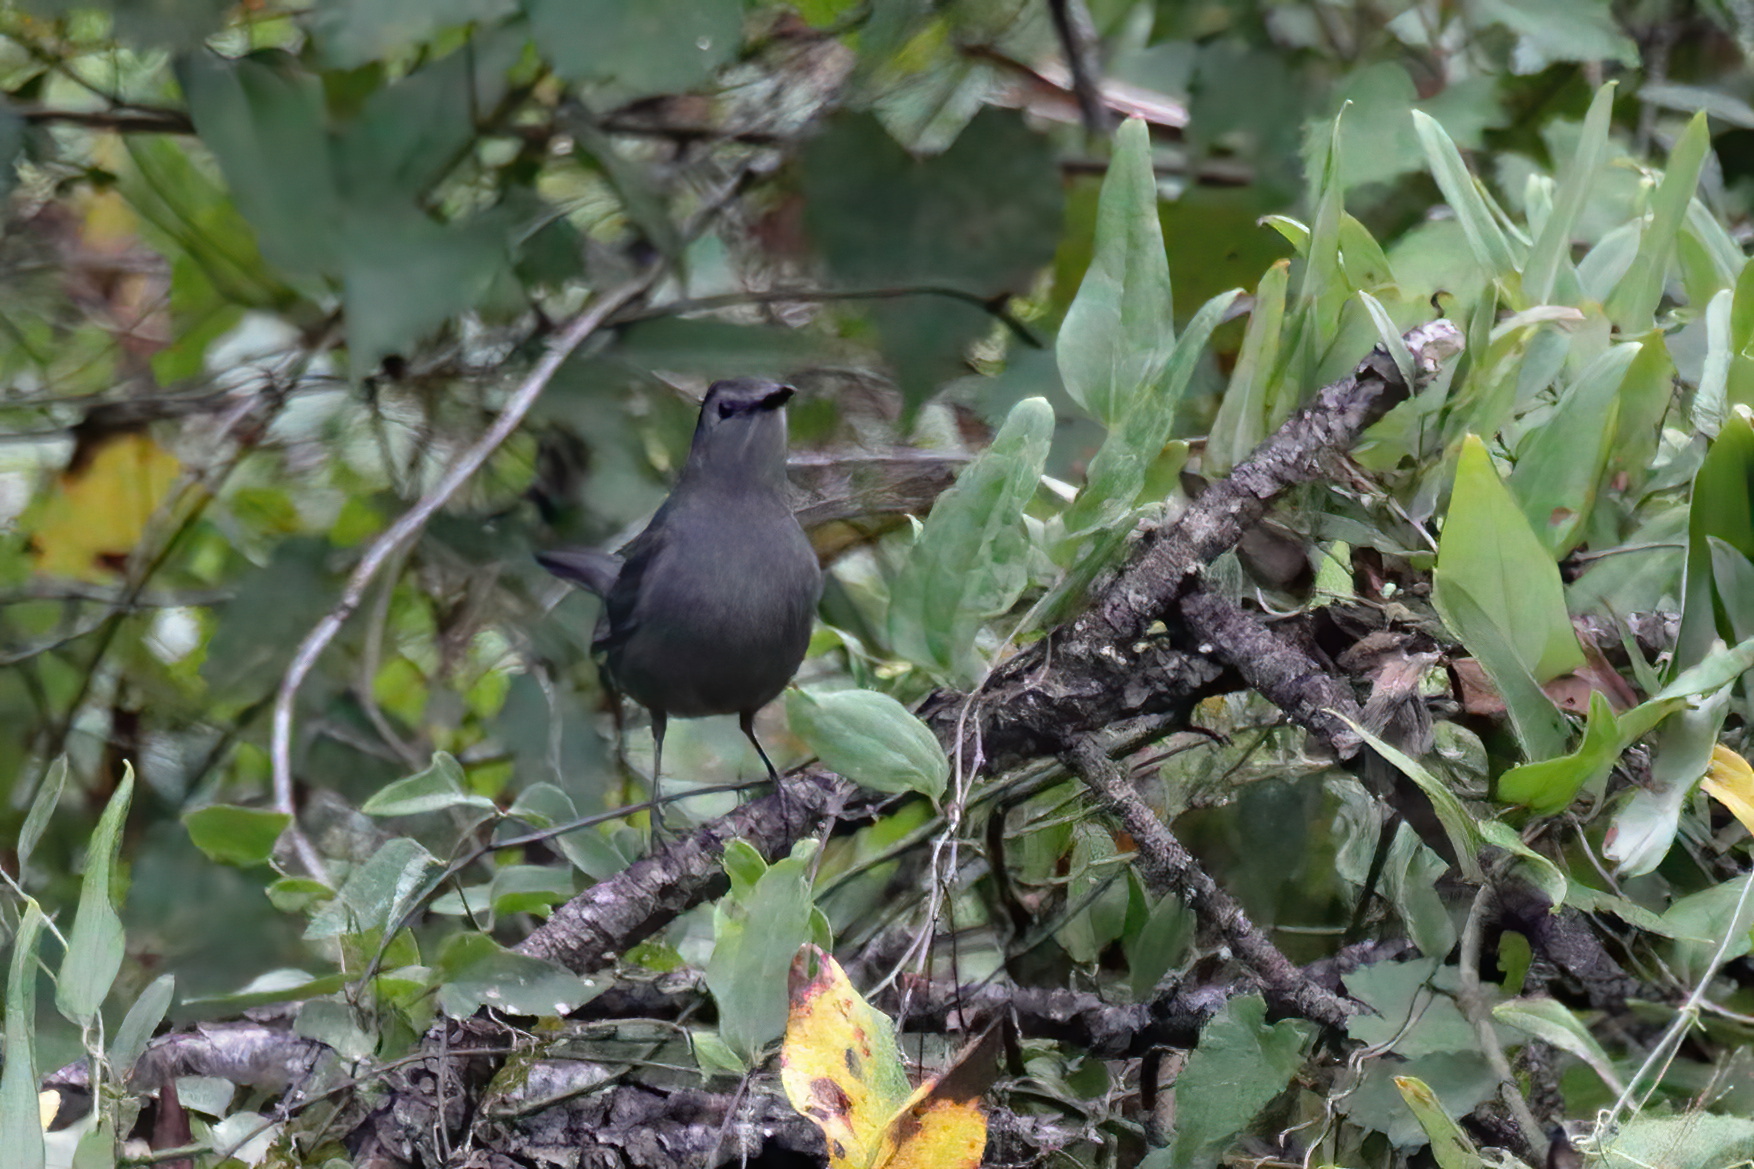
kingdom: Animalia
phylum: Chordata
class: Aves
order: Passeriformes
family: Mimidae
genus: Dumetella
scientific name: Dumetella carolinensis
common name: Gray catbird
